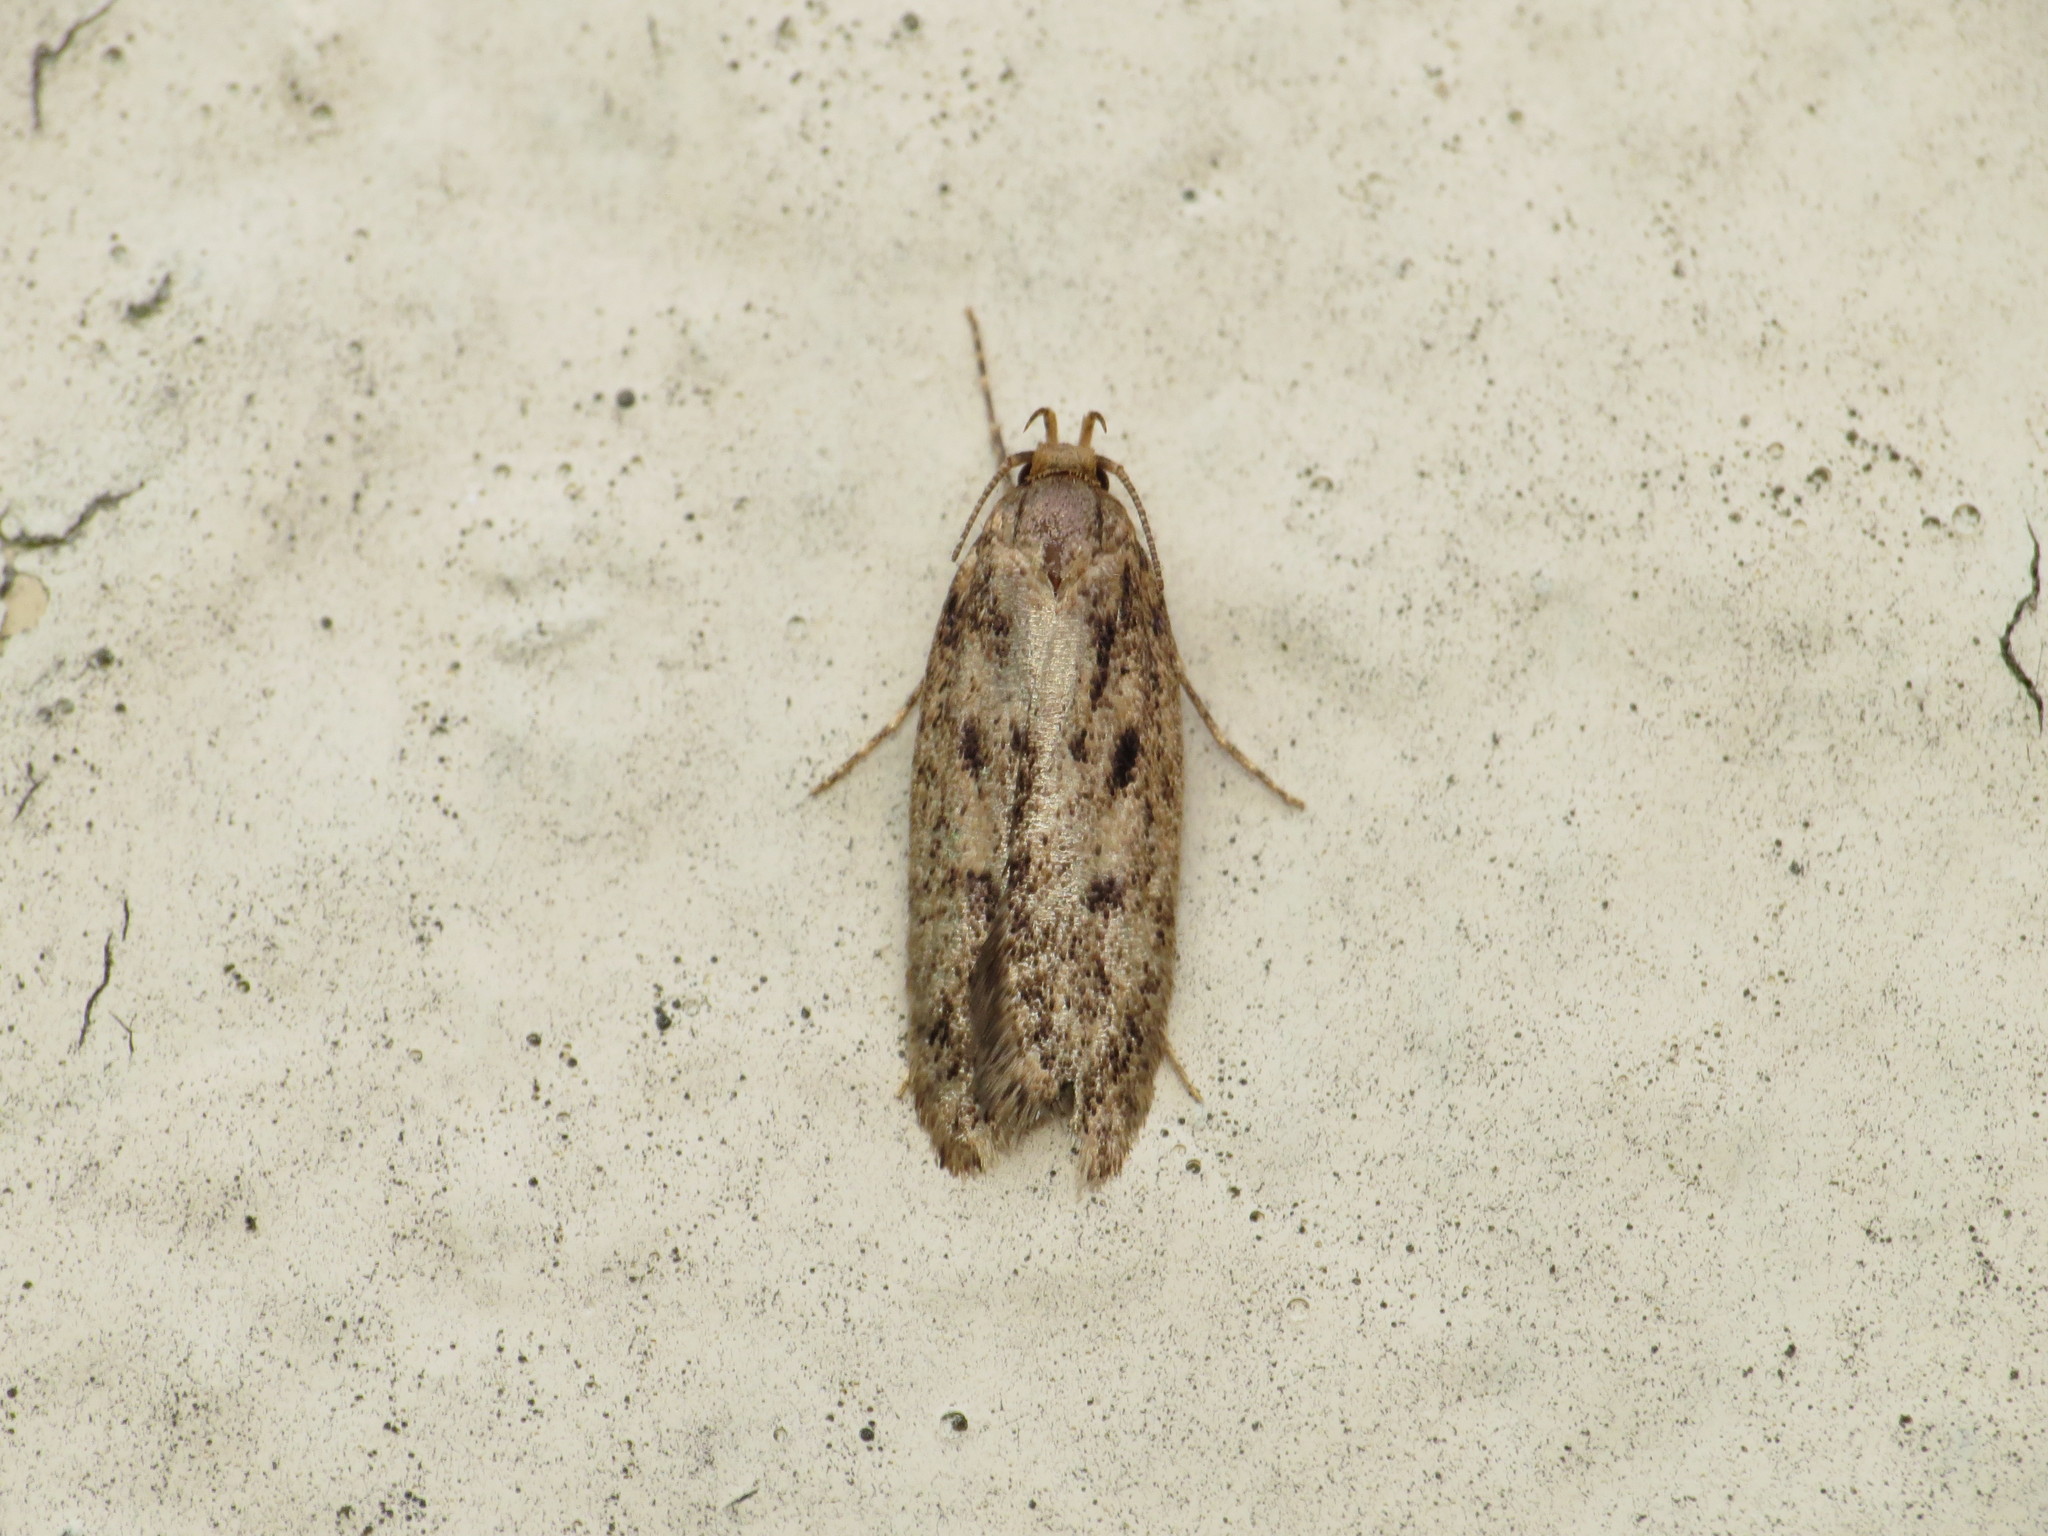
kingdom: Animalia
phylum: Arthropoda
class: Insecta
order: Lepidoptera
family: Oecophoridae
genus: Hofmannophila
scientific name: Hofmannophila pseudospretella
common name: Brown house moth
